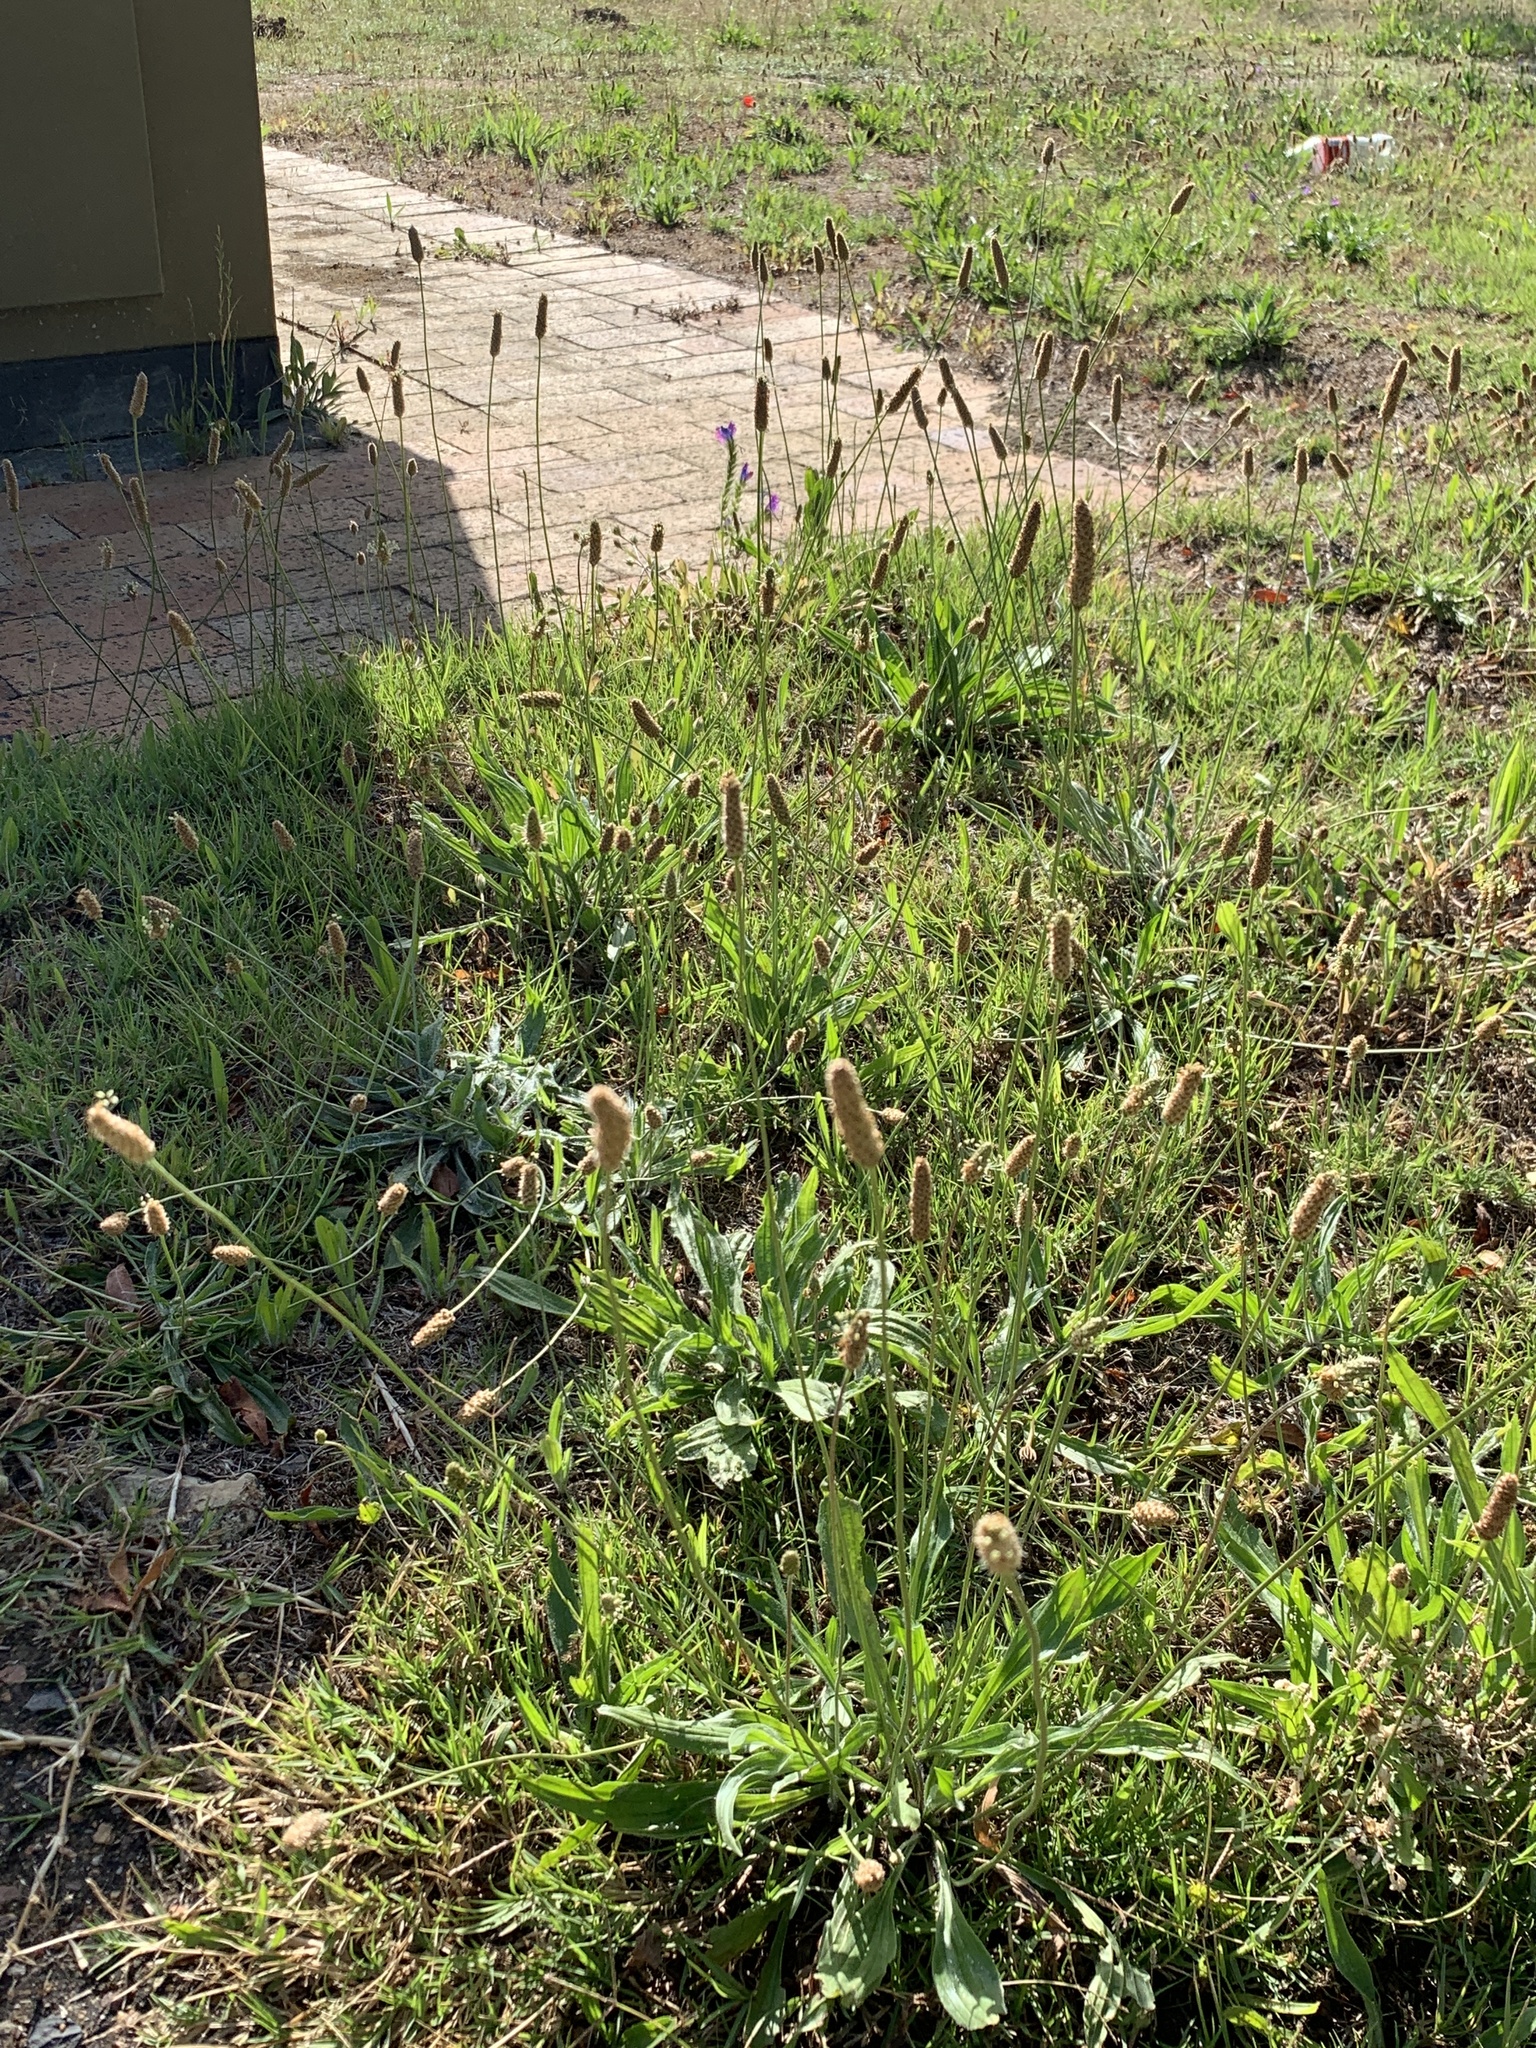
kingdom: Plantae
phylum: Tracheophyta
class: Magnoliopsida
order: Lamiales
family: Plantaginaceae
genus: Plantago
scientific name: Plantago lanceolata
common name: Ribwort plantain
